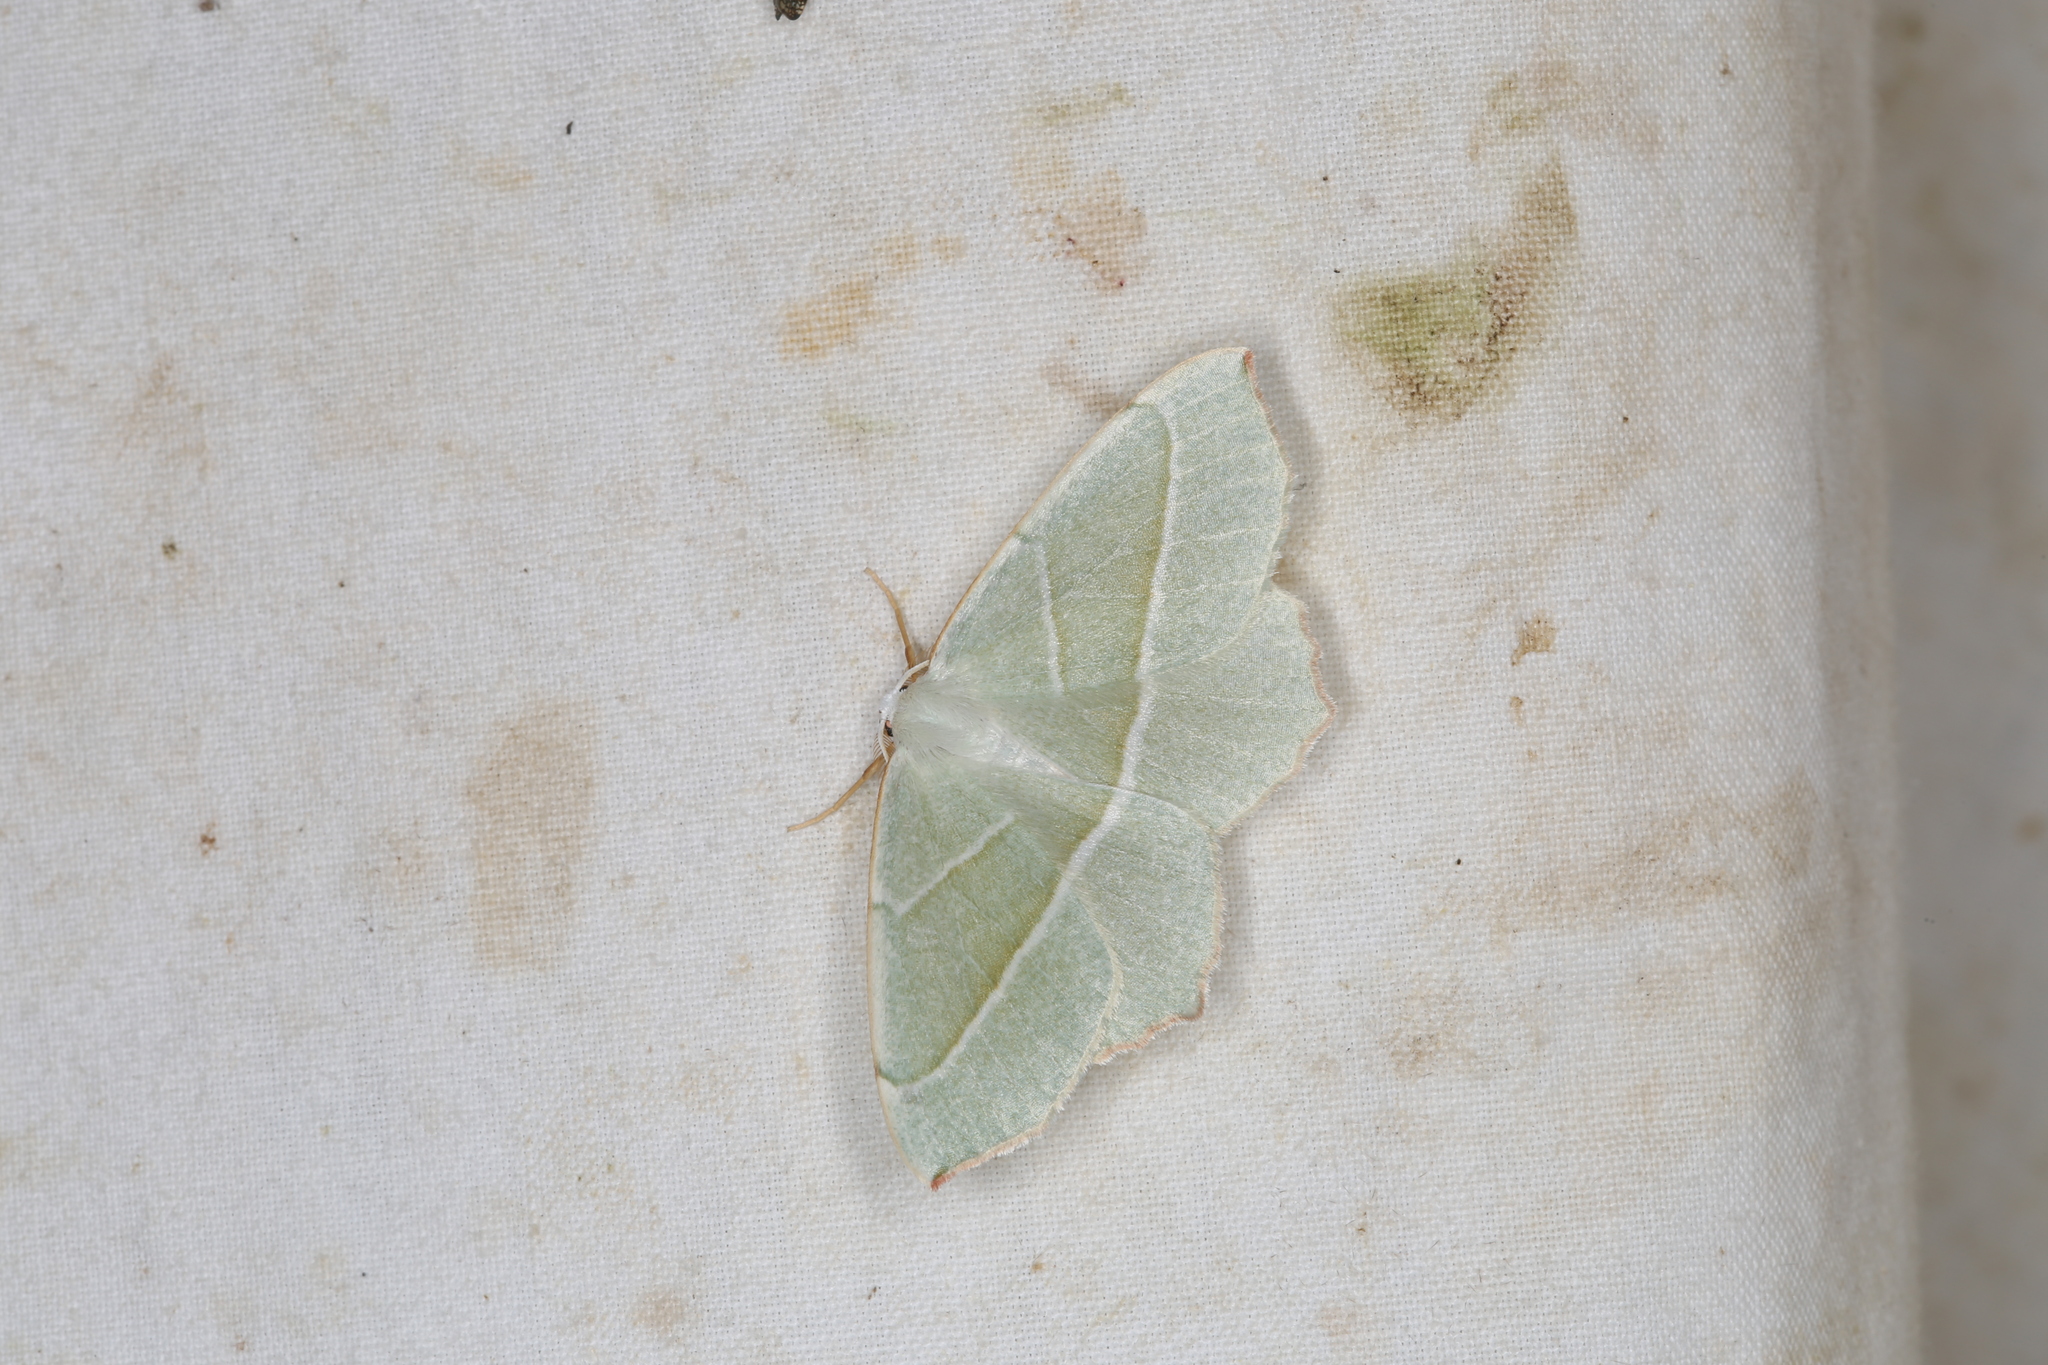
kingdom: Animalia
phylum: Arthropoda
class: Insecta
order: Lepidoptera
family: Geometridae
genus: Campaea
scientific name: Campaea margaritaria
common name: Light emerald
